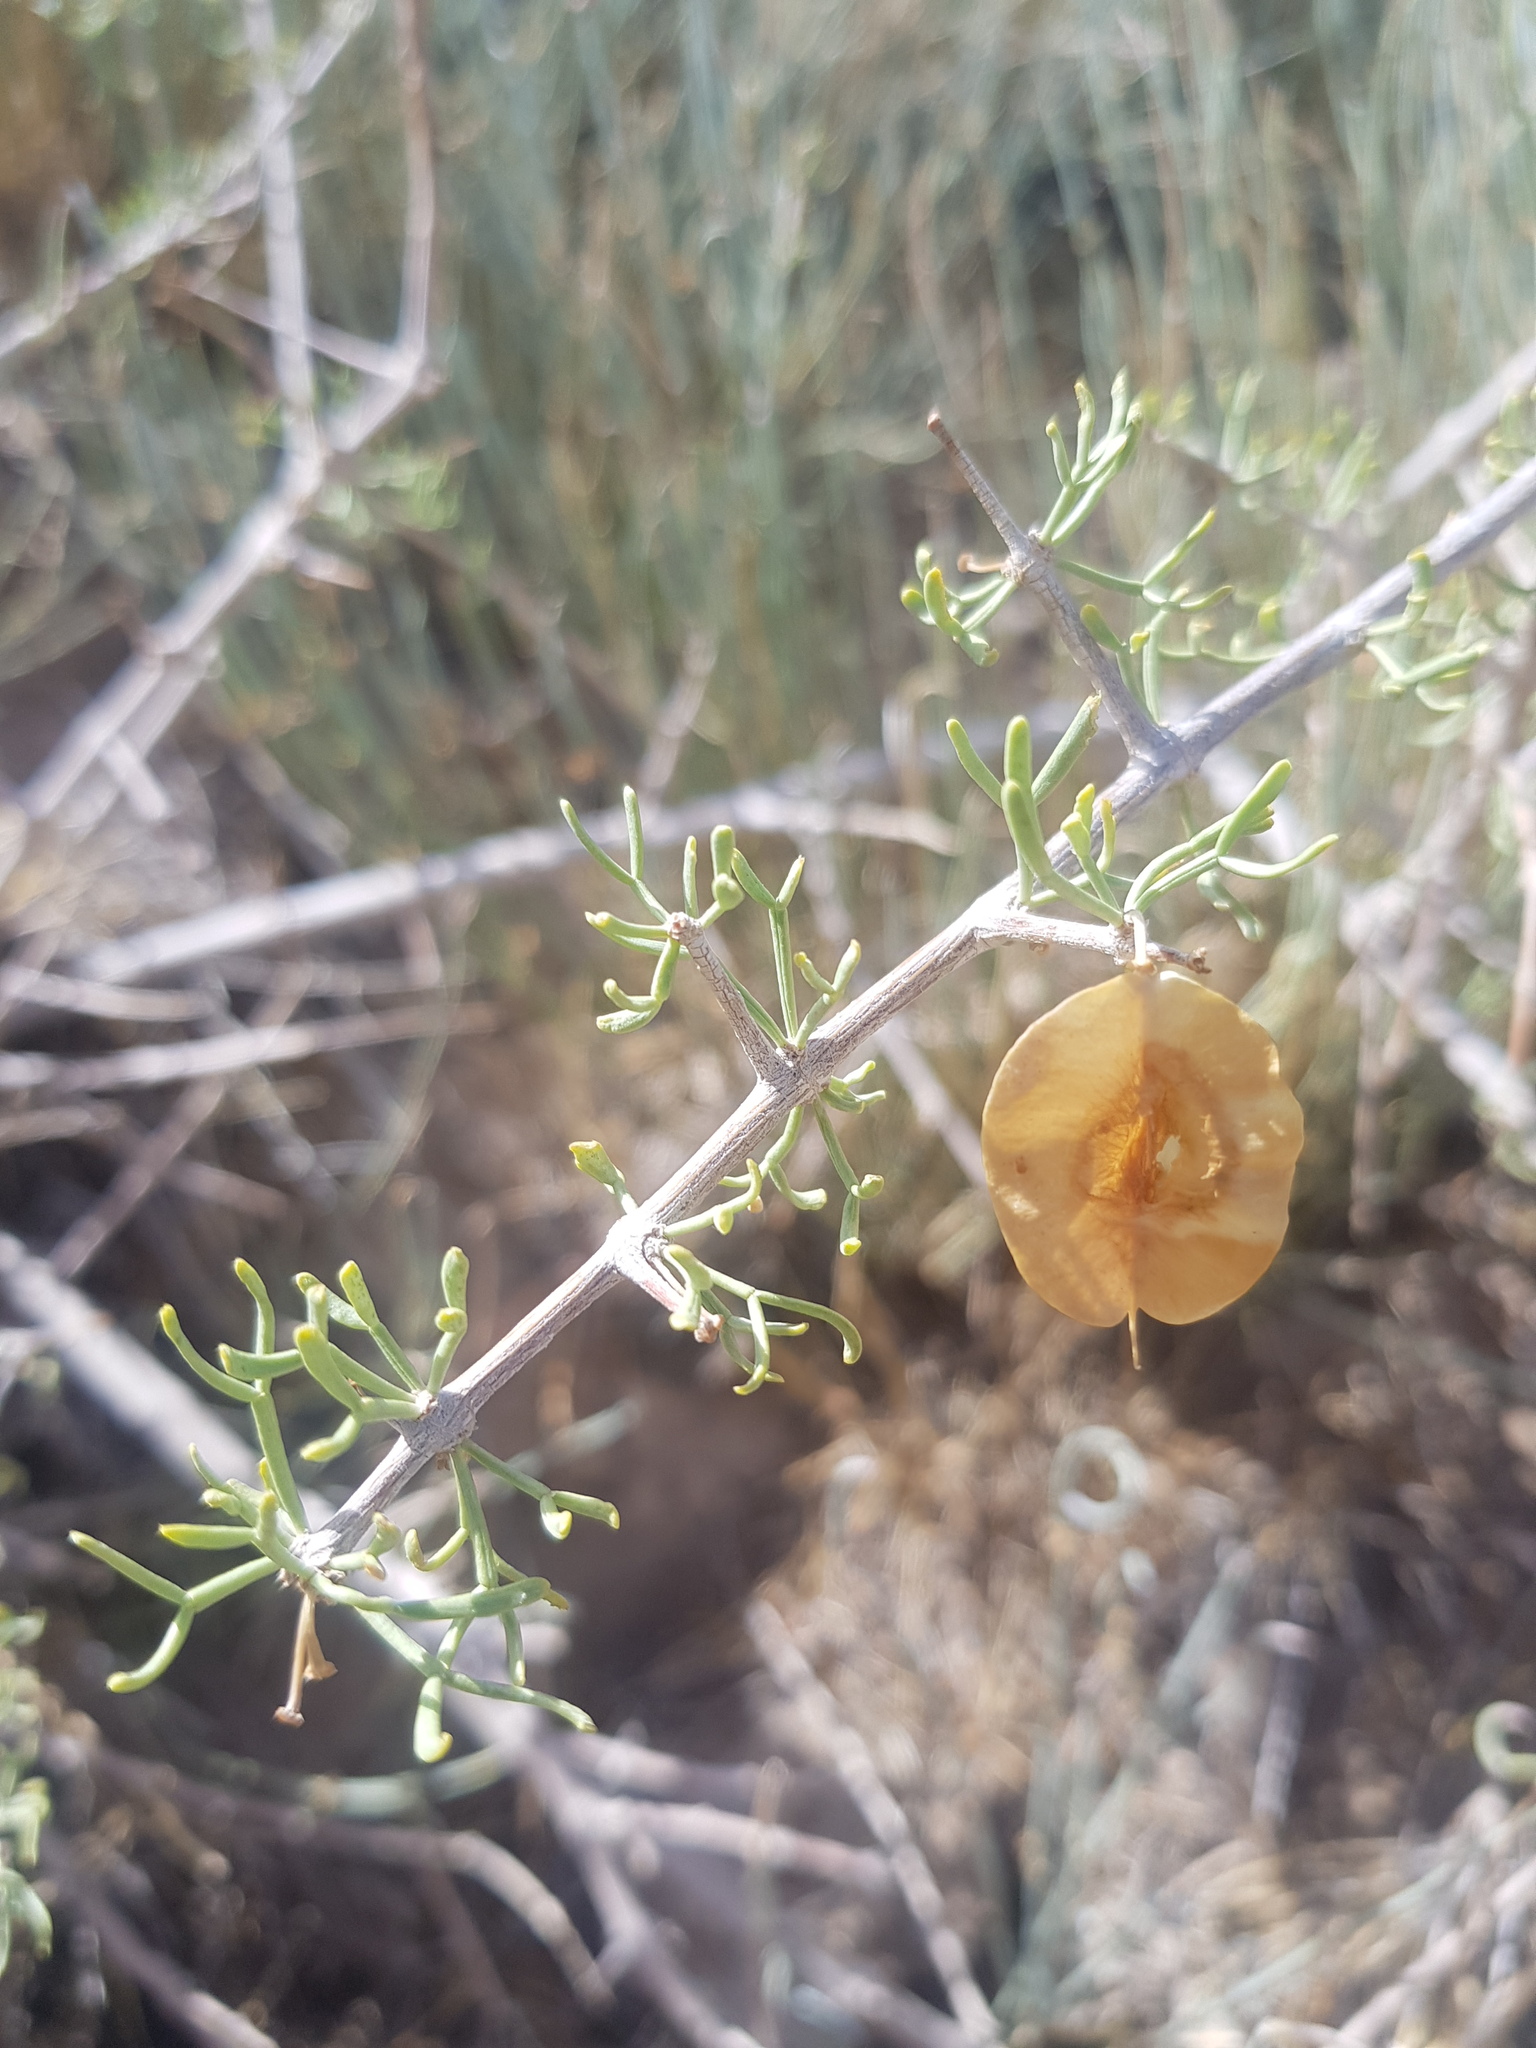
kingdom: Plantae
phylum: Tracheophyta
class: Magnoliopsida
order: Zygophyllales
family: Zygophyllaceae
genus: Zygophyllum
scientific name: Zygophyllum xanthoxylum
